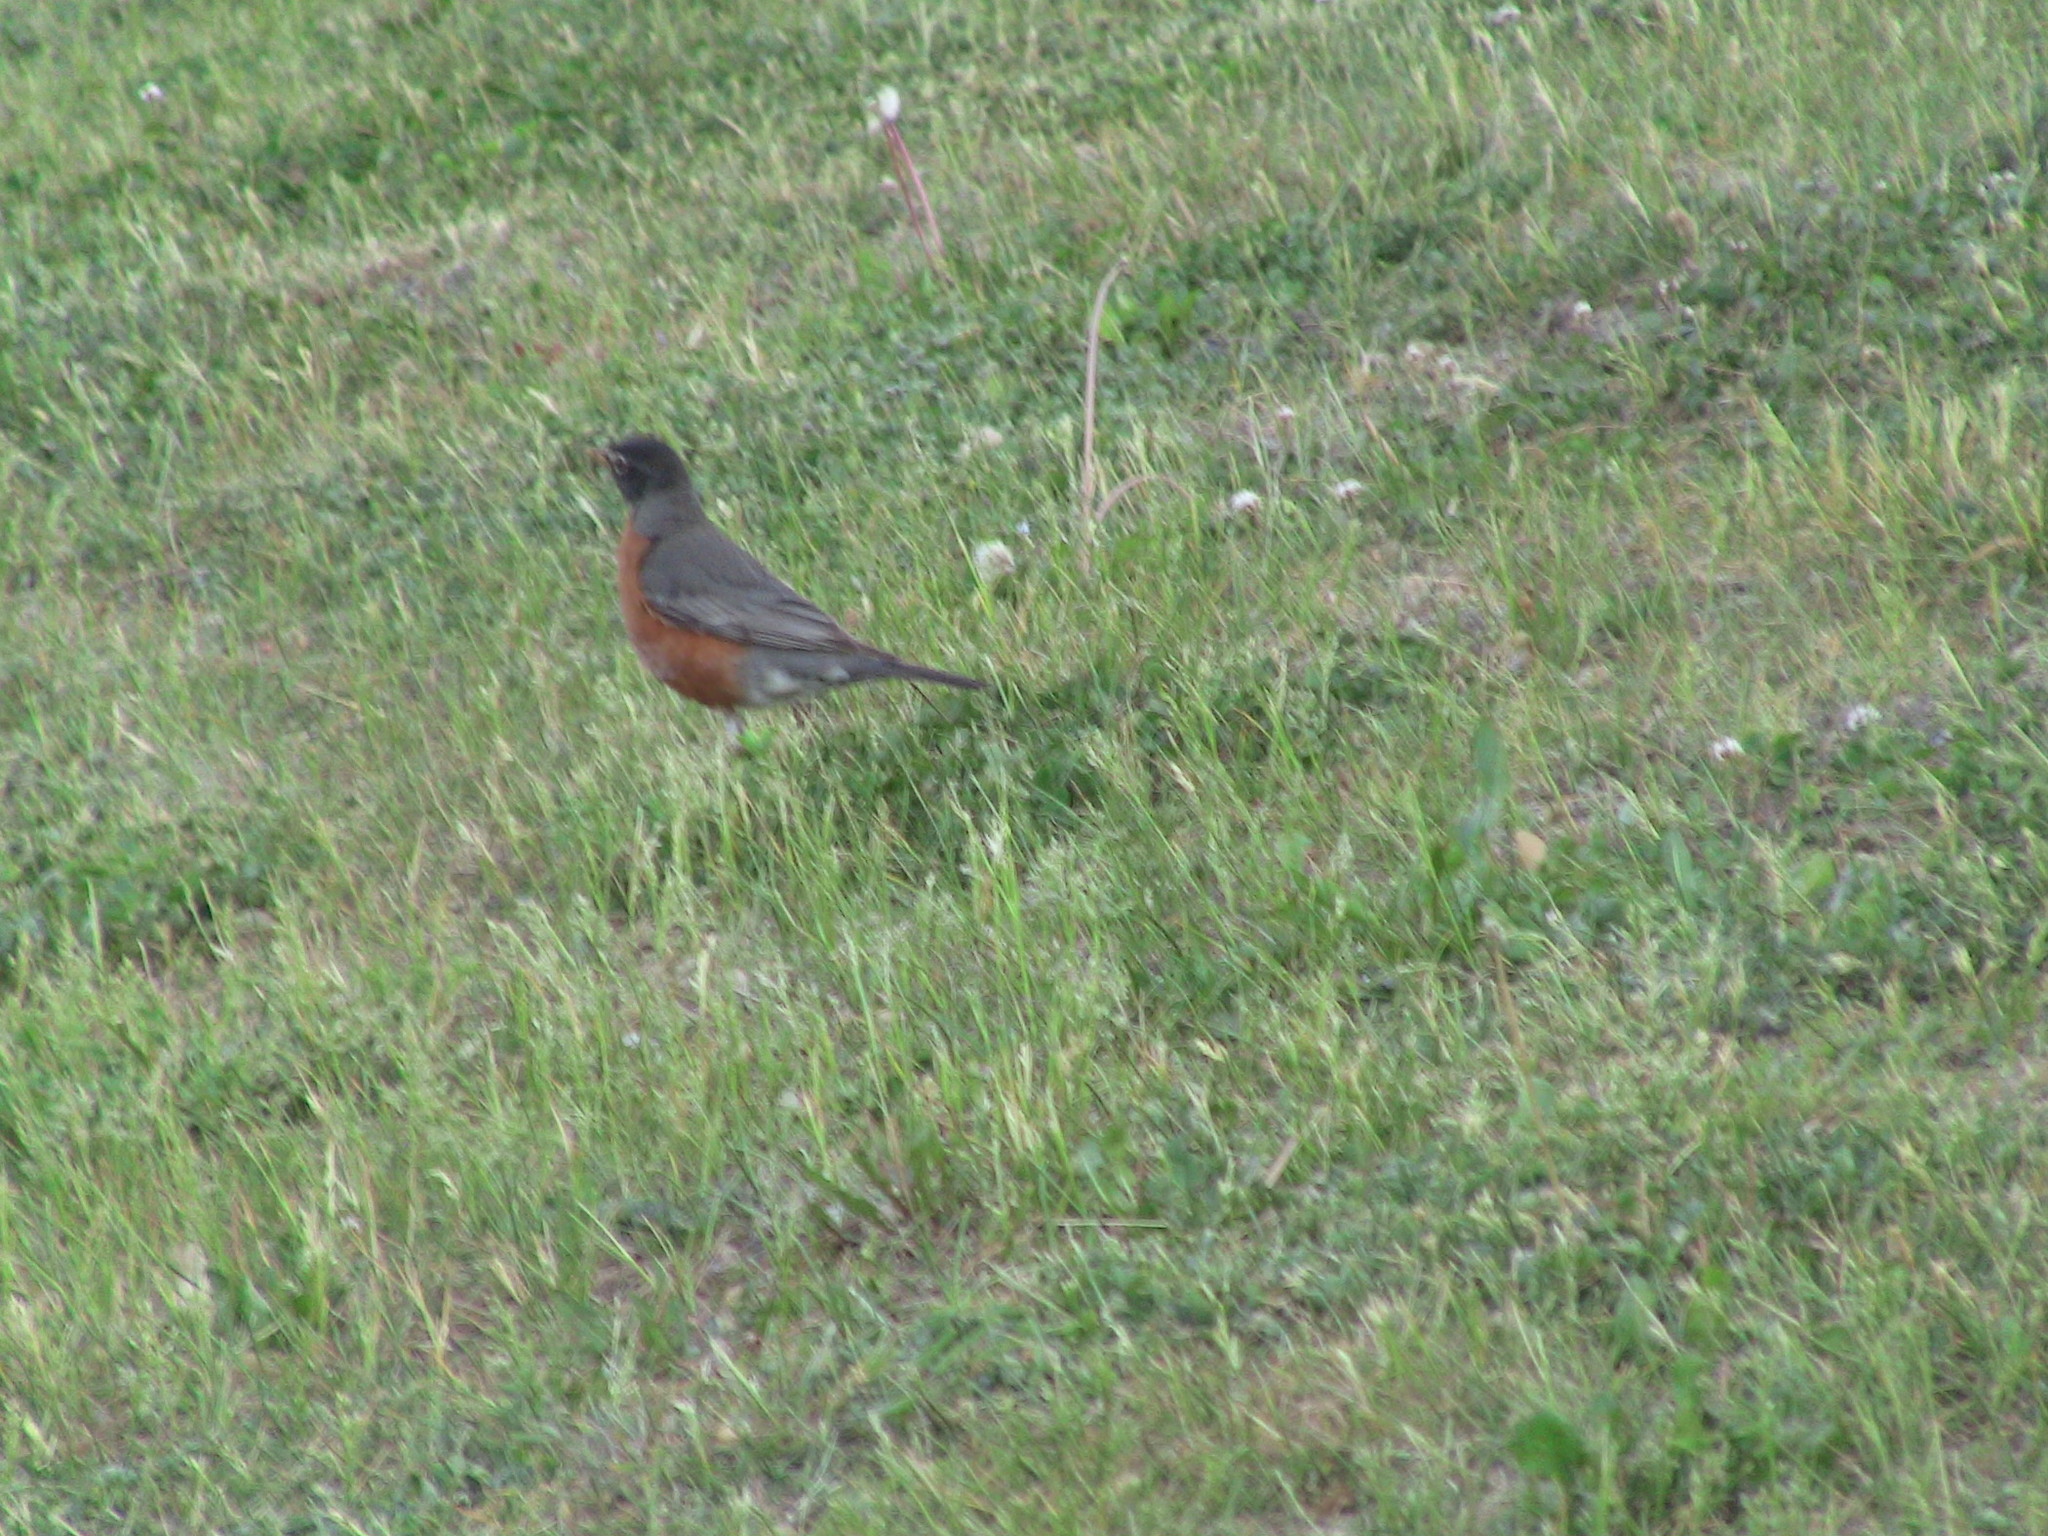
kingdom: Animalia
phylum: Chordata
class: Aves
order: Passeriformes
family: Turdidae
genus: Turdus
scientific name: Turdus migratorius
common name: American robin
